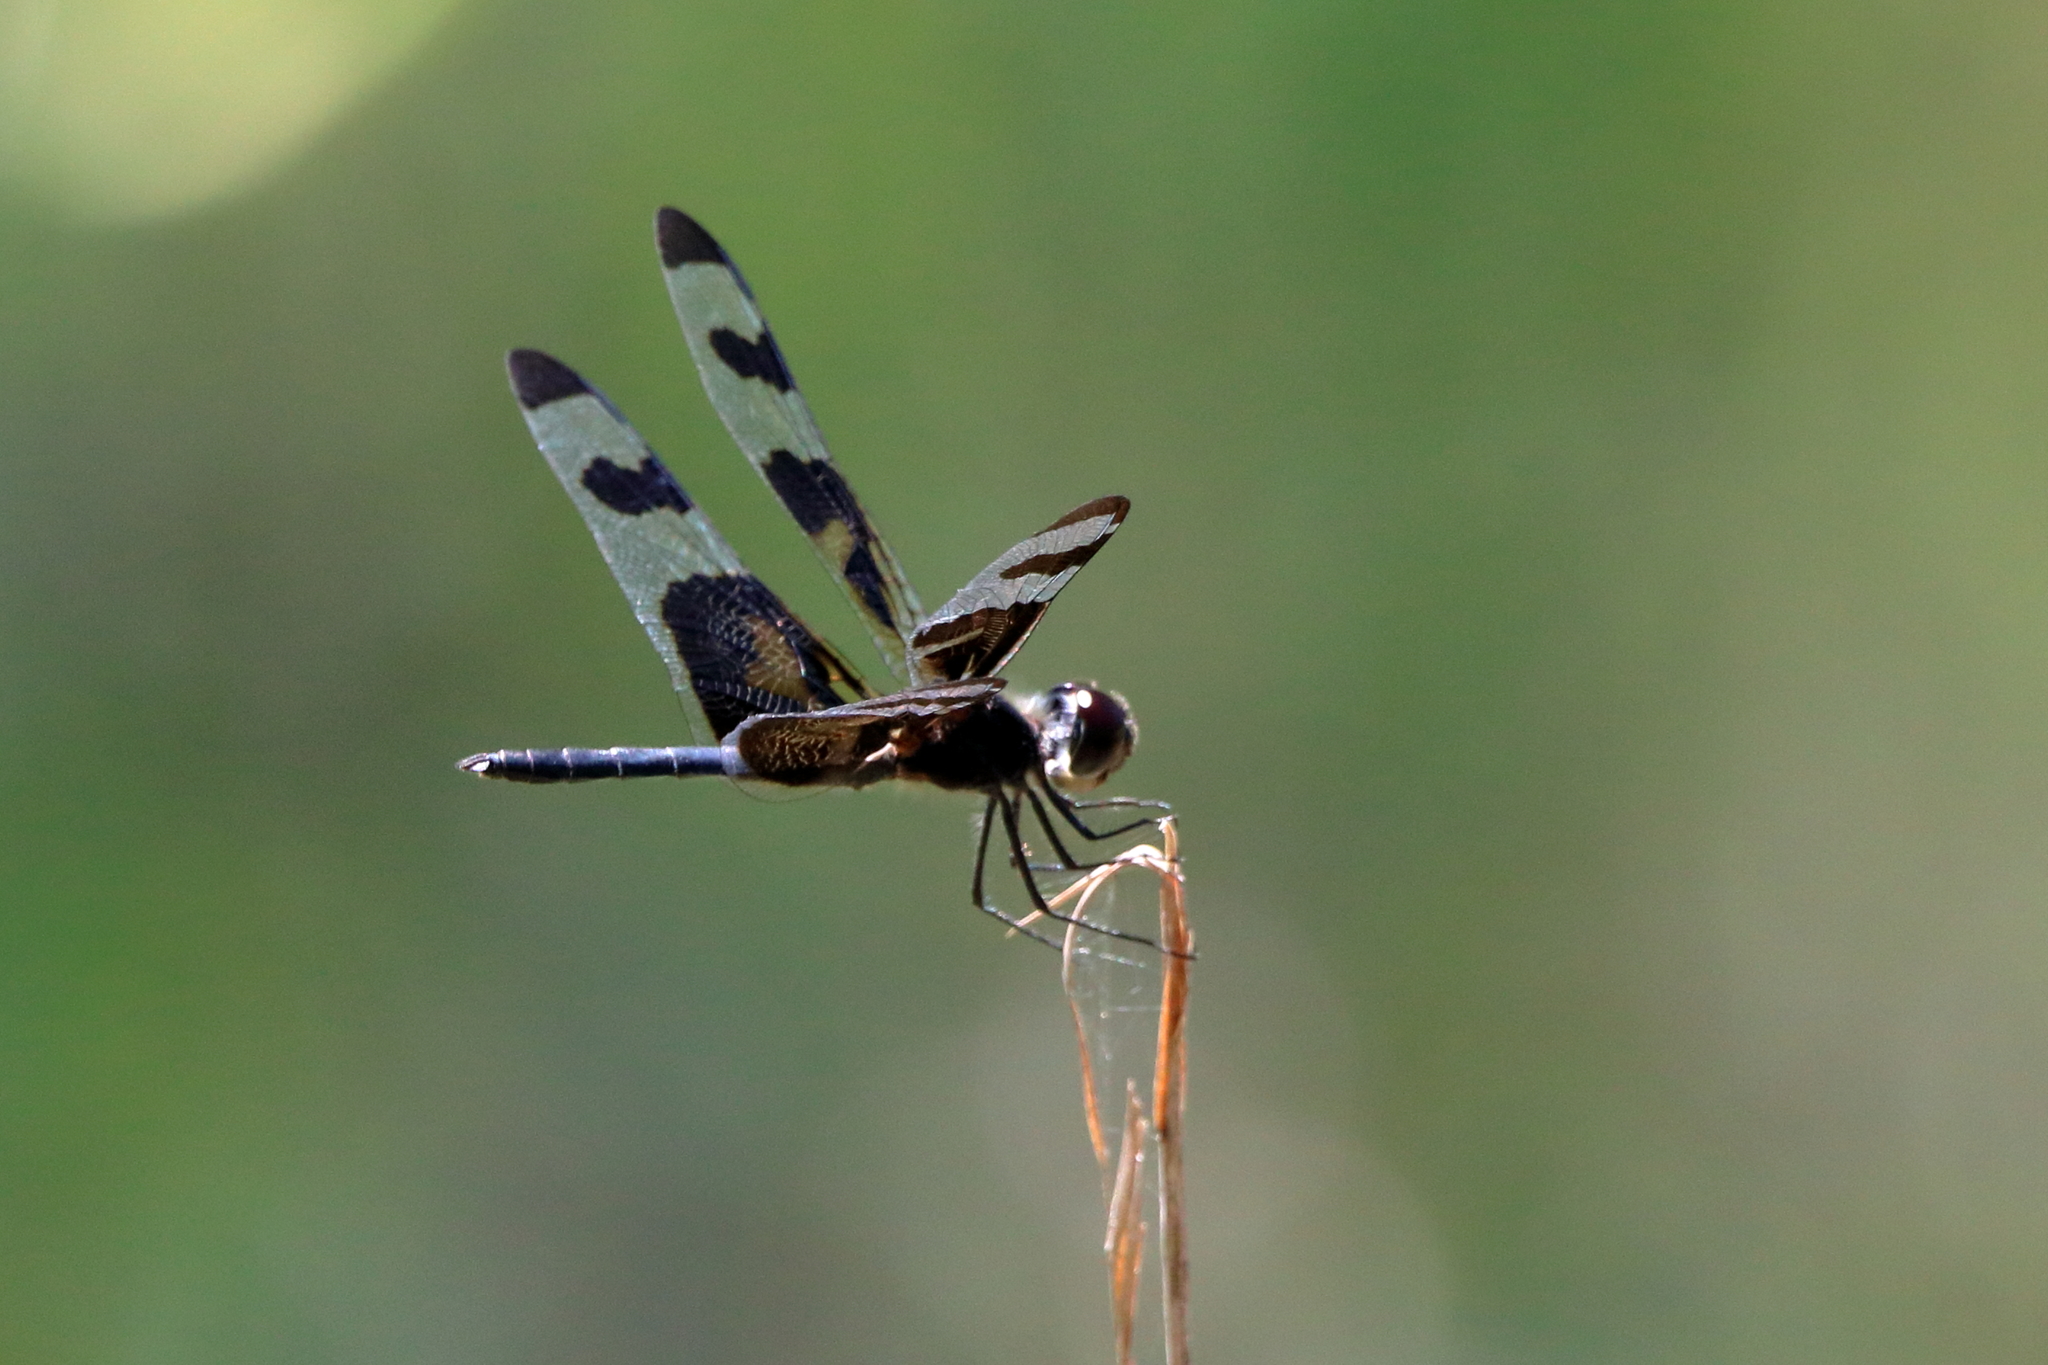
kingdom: Animalia
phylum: Arthropoda
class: Insecta
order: Odonata
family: Libellulidae
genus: Celithemis
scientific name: Celithemis fasciata
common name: Banded pennant
